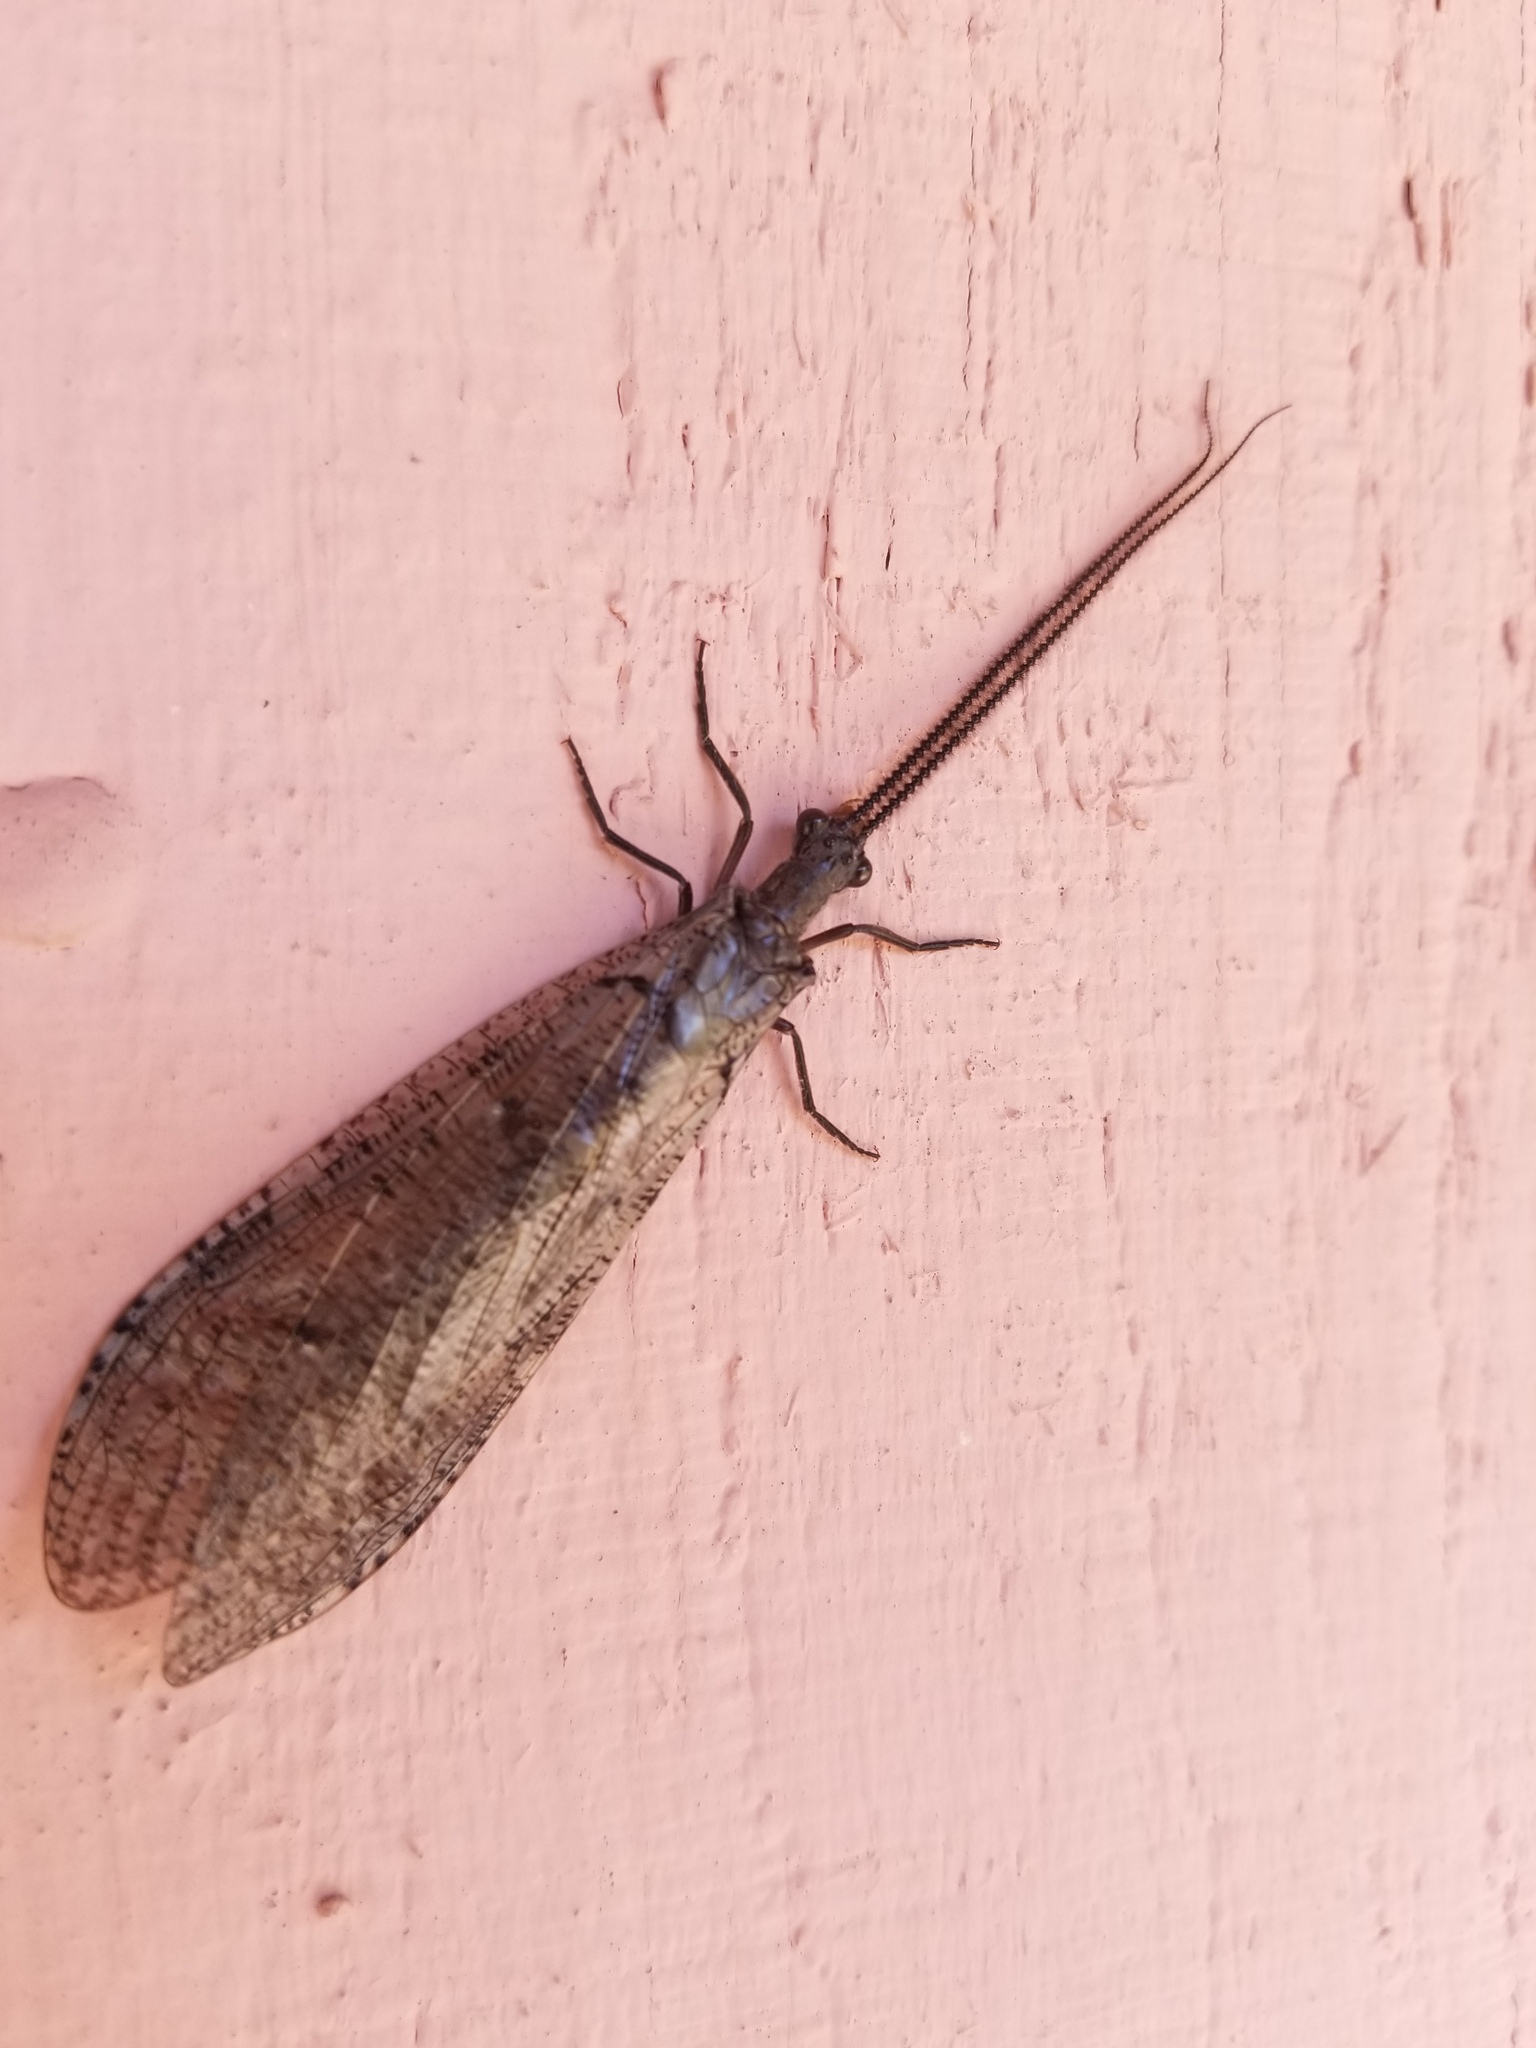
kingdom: Animalia
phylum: Arthropoda
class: Insecta
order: Megaloptera
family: Corydalidae
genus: Neohermes
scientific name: Neohermes californicus
